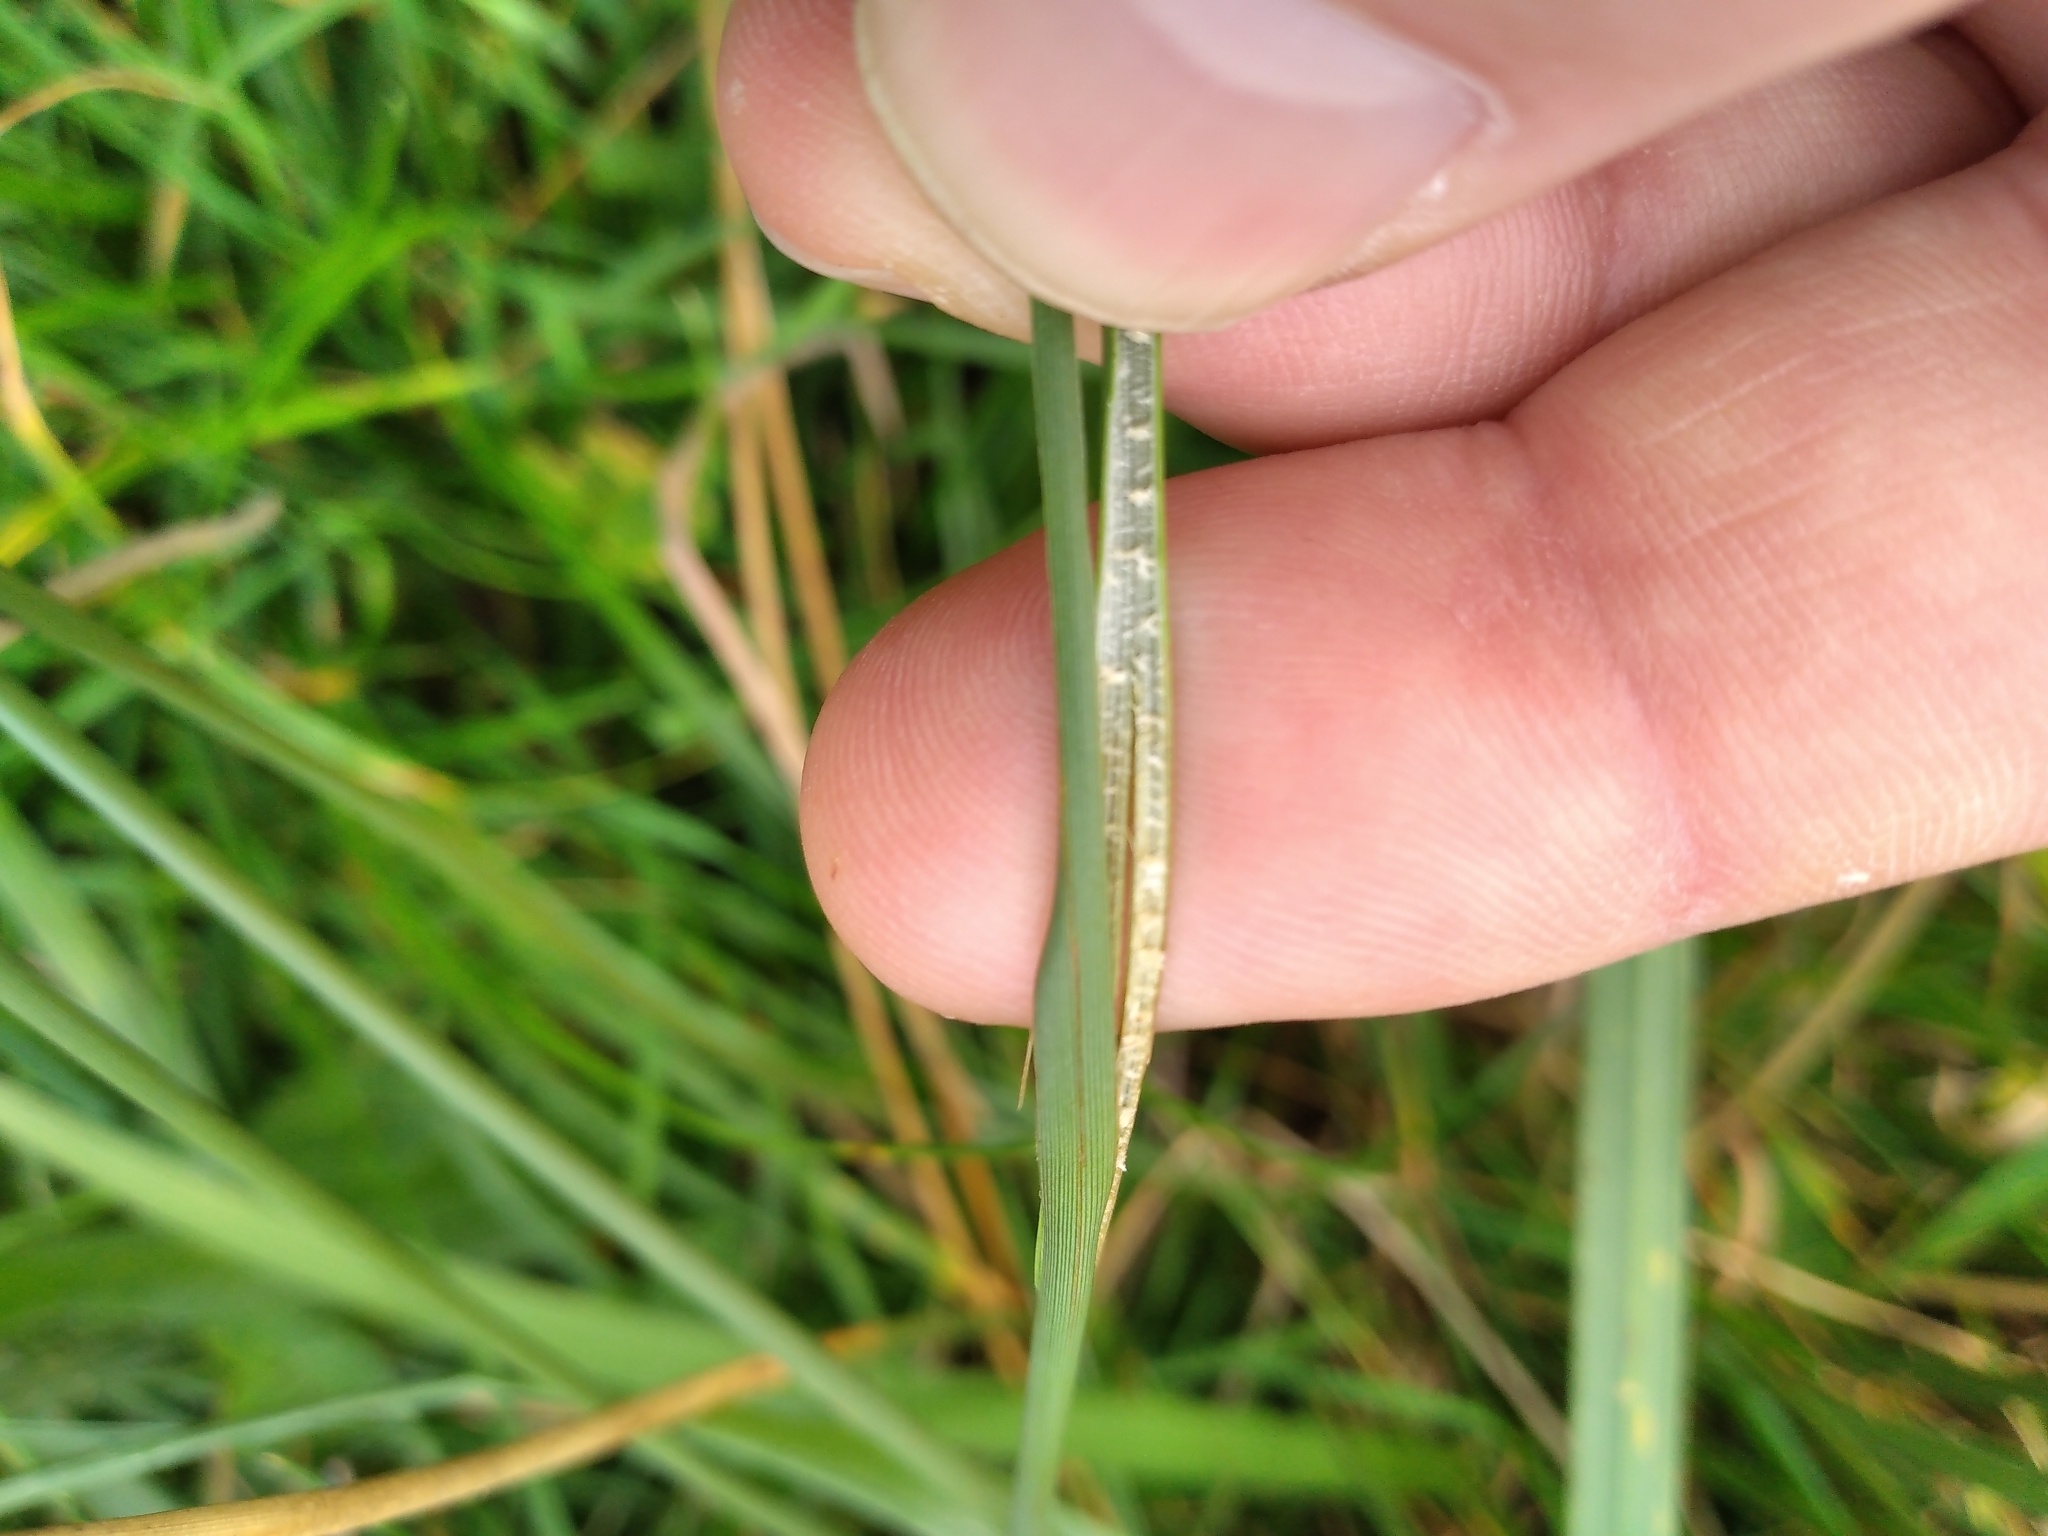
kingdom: Plantae
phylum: Tracheophyta
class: Liliopsida
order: Poales
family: Juncaceae
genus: Juncus
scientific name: Juncus australis
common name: Austral rush
